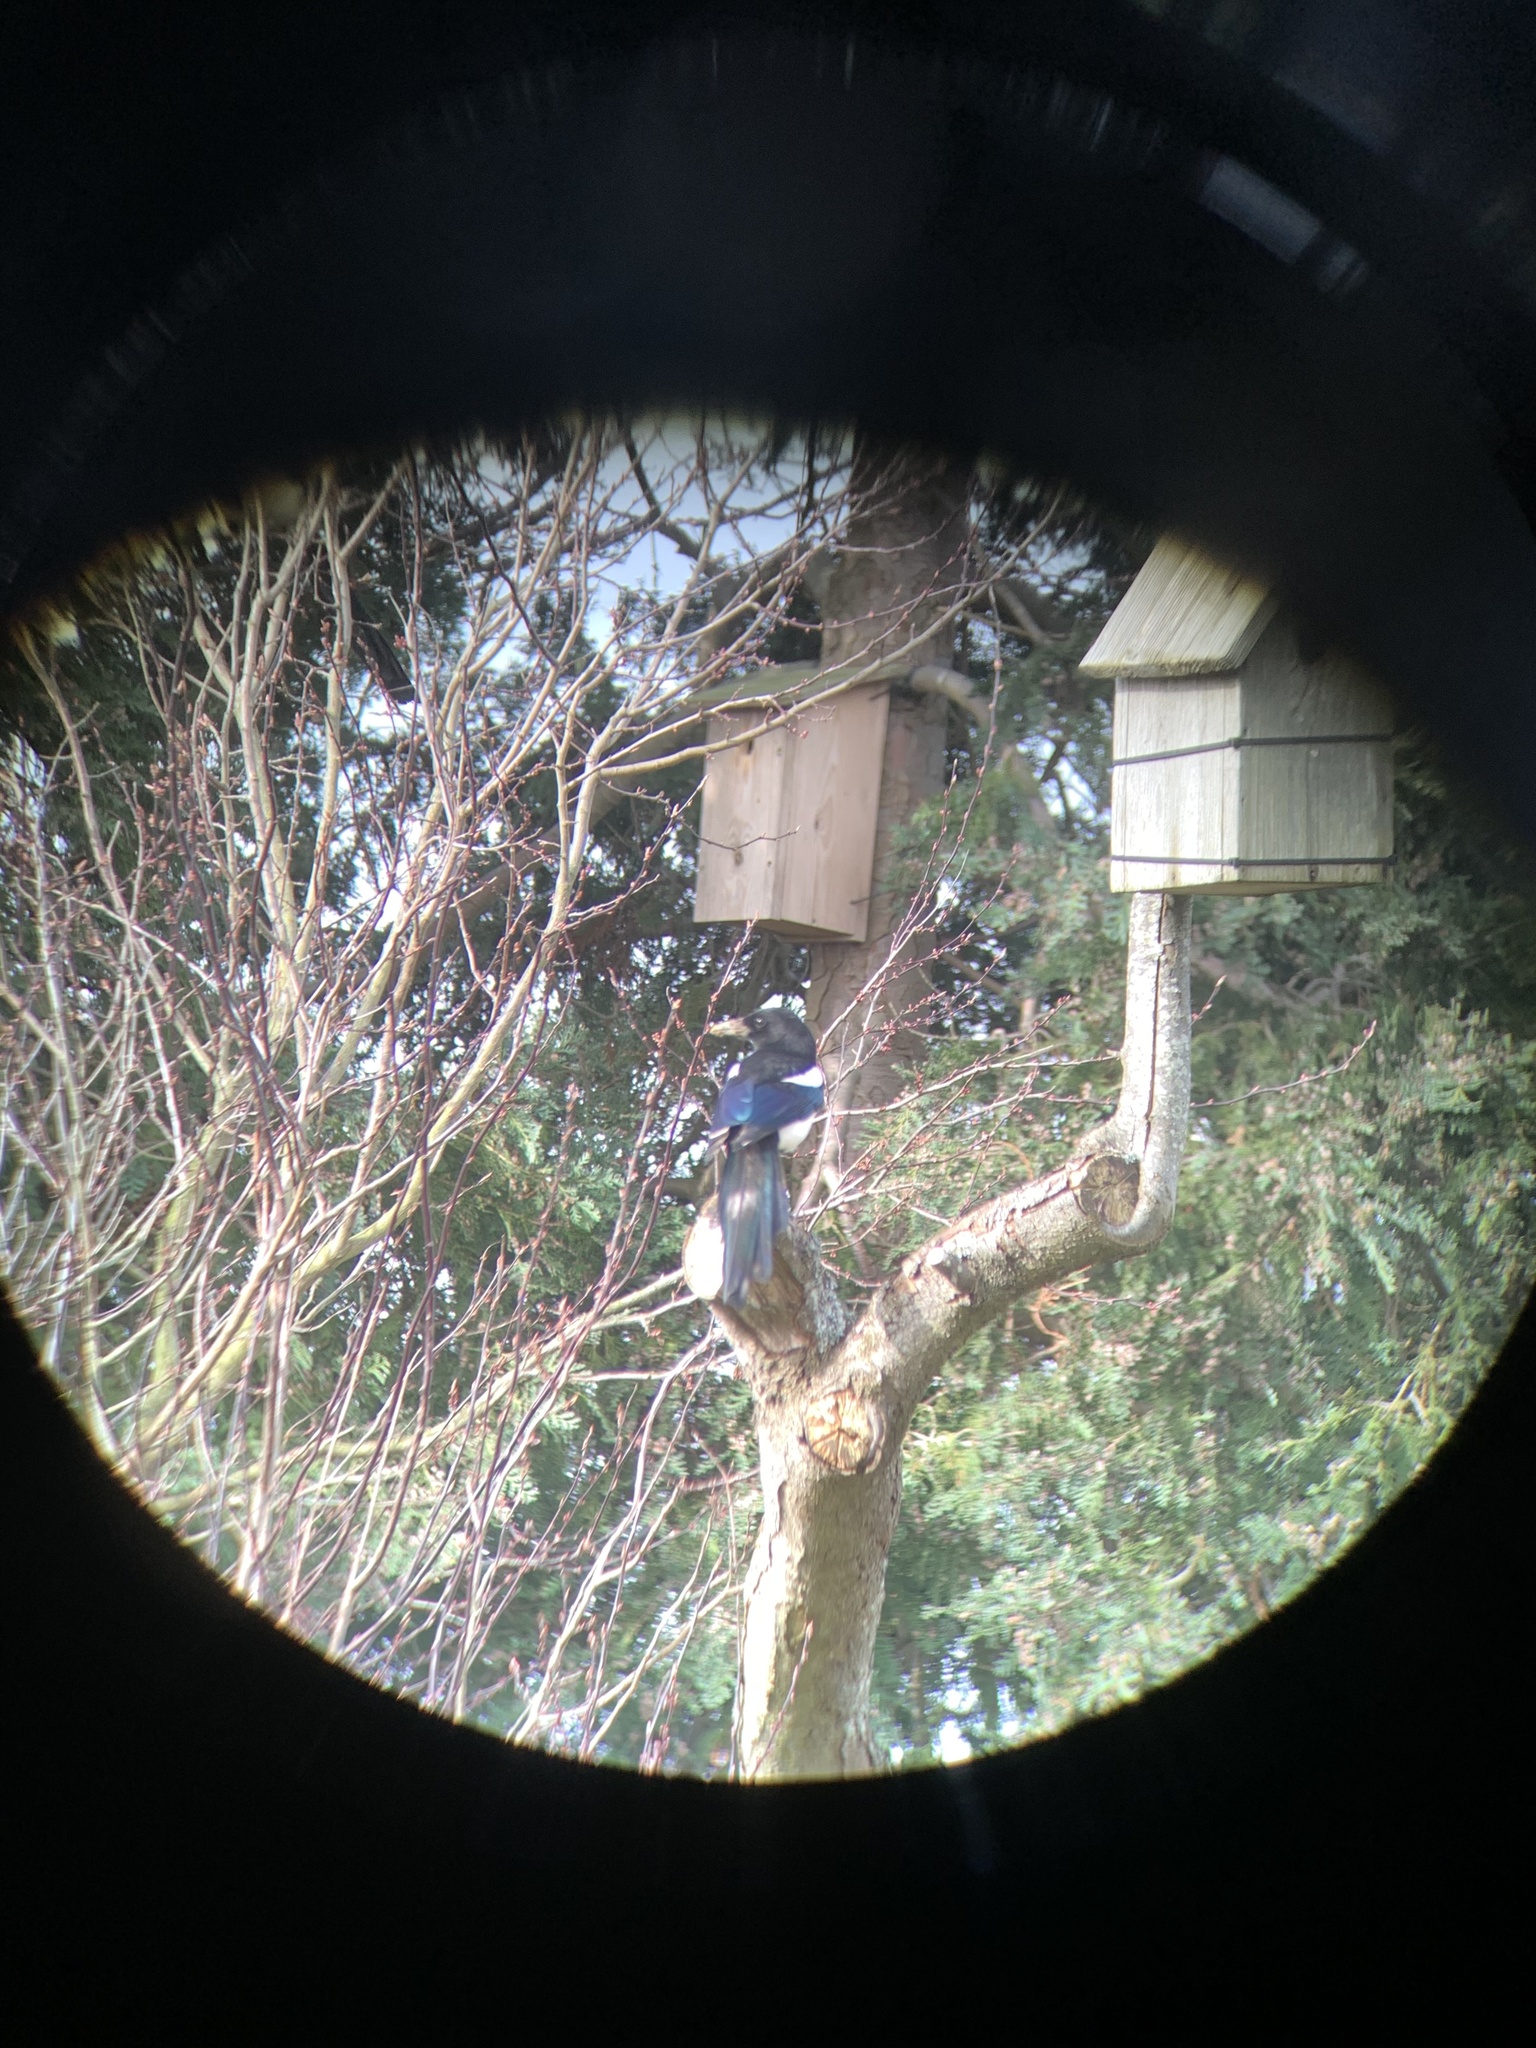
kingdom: Animalia
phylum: Chordata
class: Aves
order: Passeriformes
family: Corvidae
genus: Pica
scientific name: Pica pica
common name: Eurasian magpie
